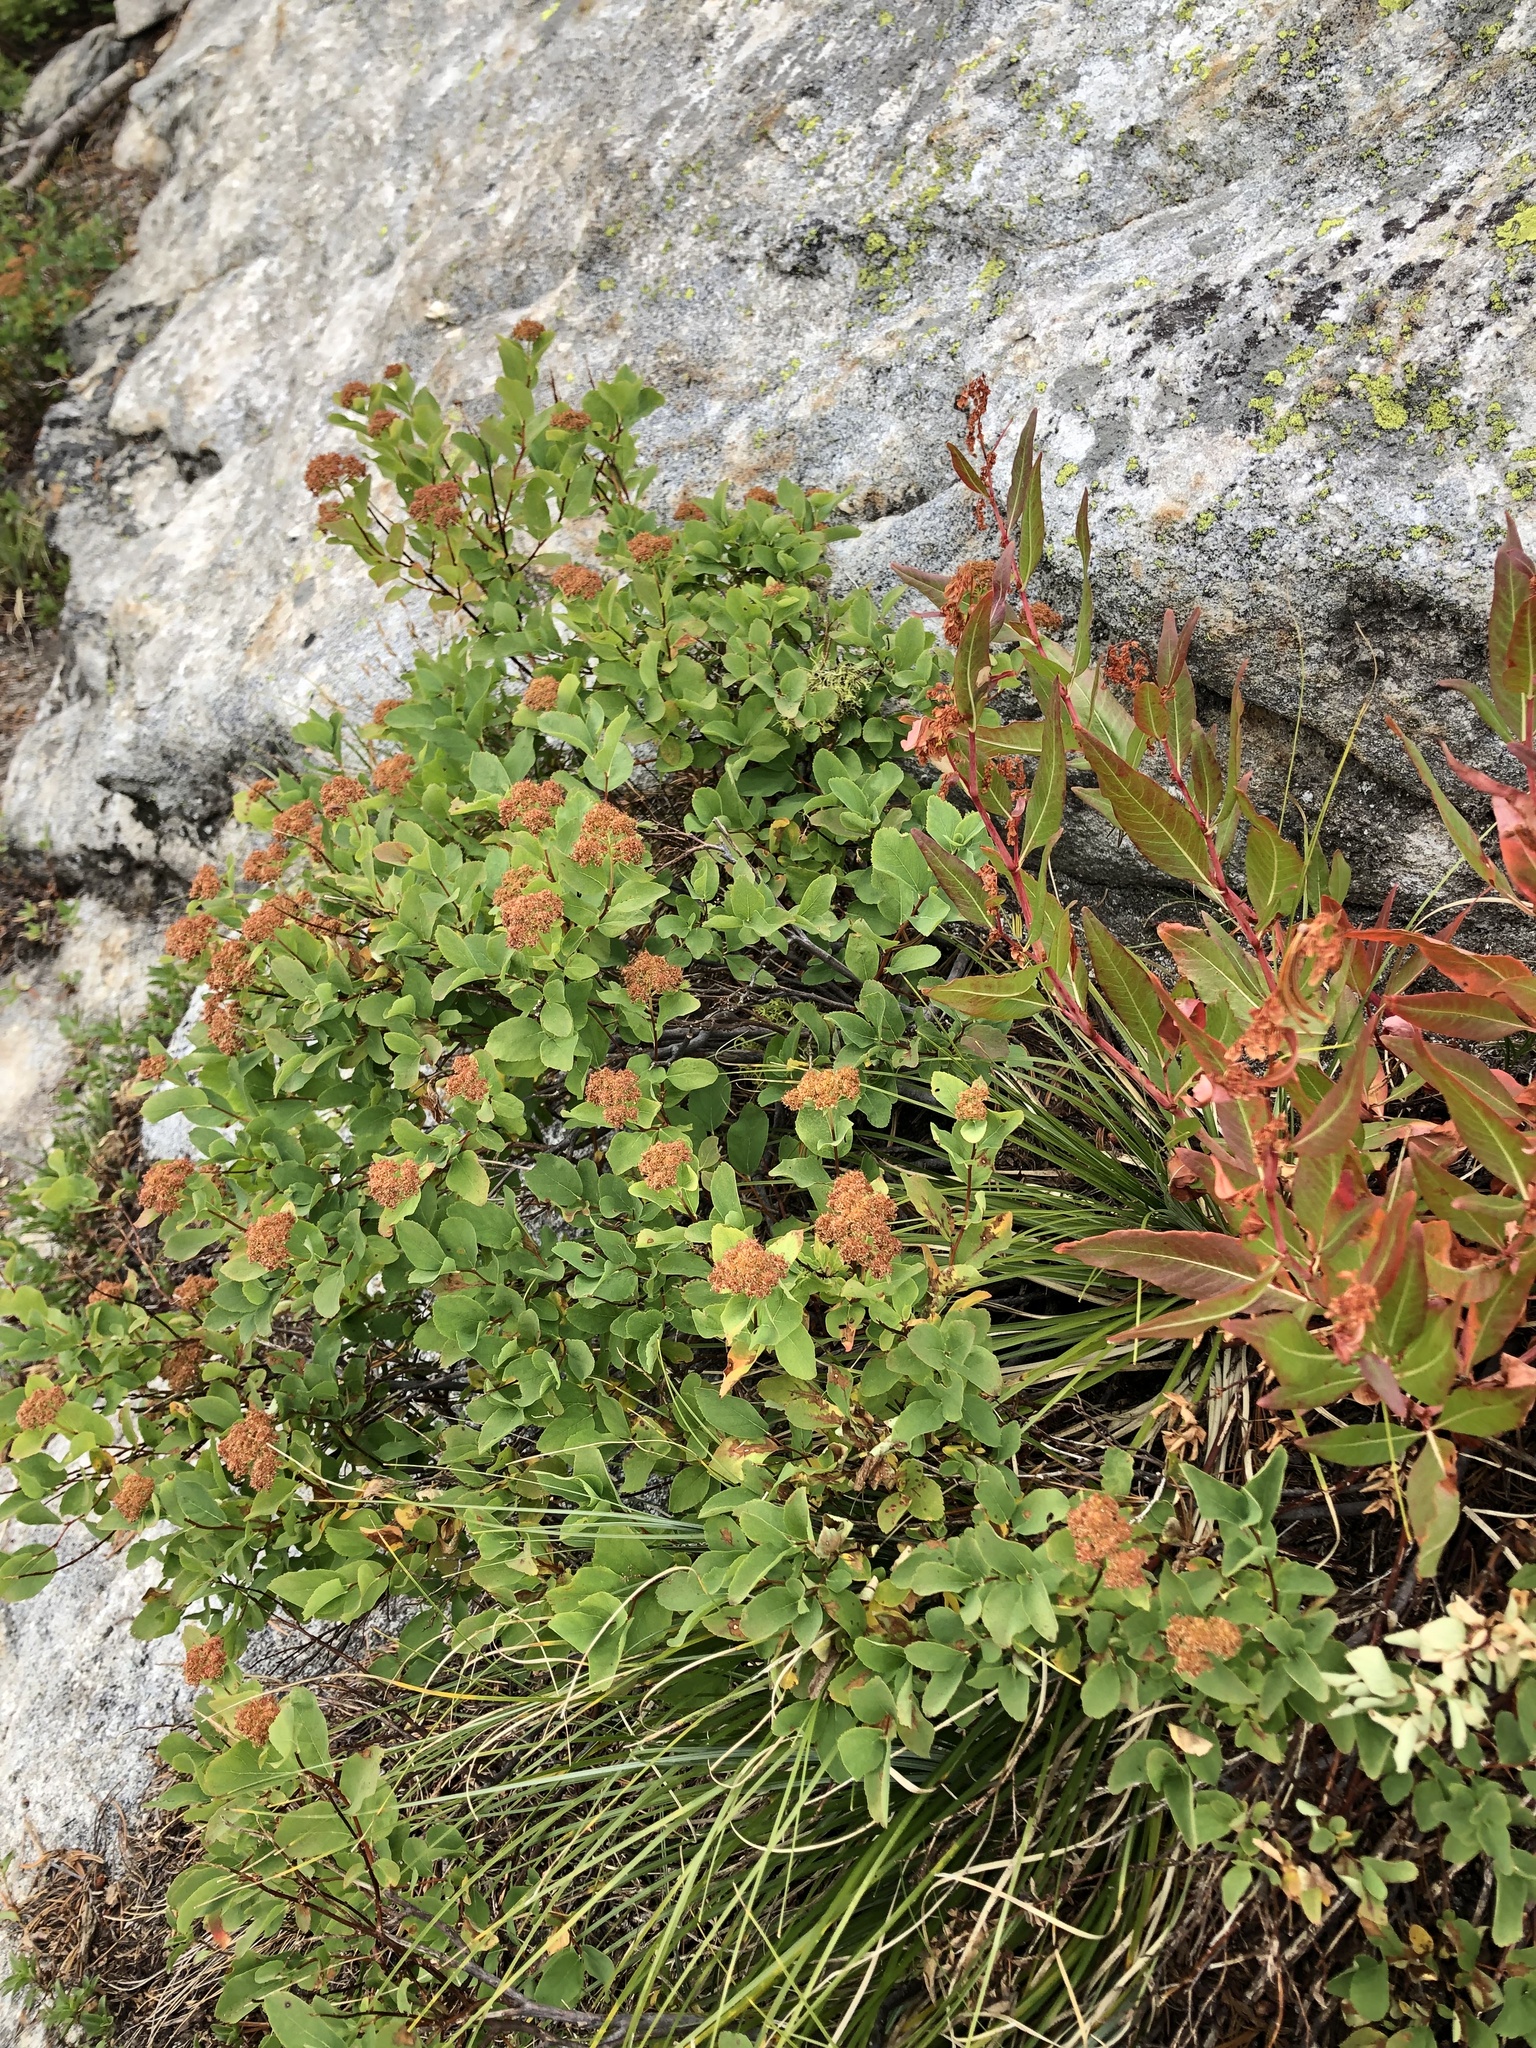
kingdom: Plantae
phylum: Tracheophyta
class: Magnoliopsida
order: Rosales
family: Rosaceae
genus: Spiraea
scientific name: Spiraea splendens
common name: Subalpine meadowsweet
